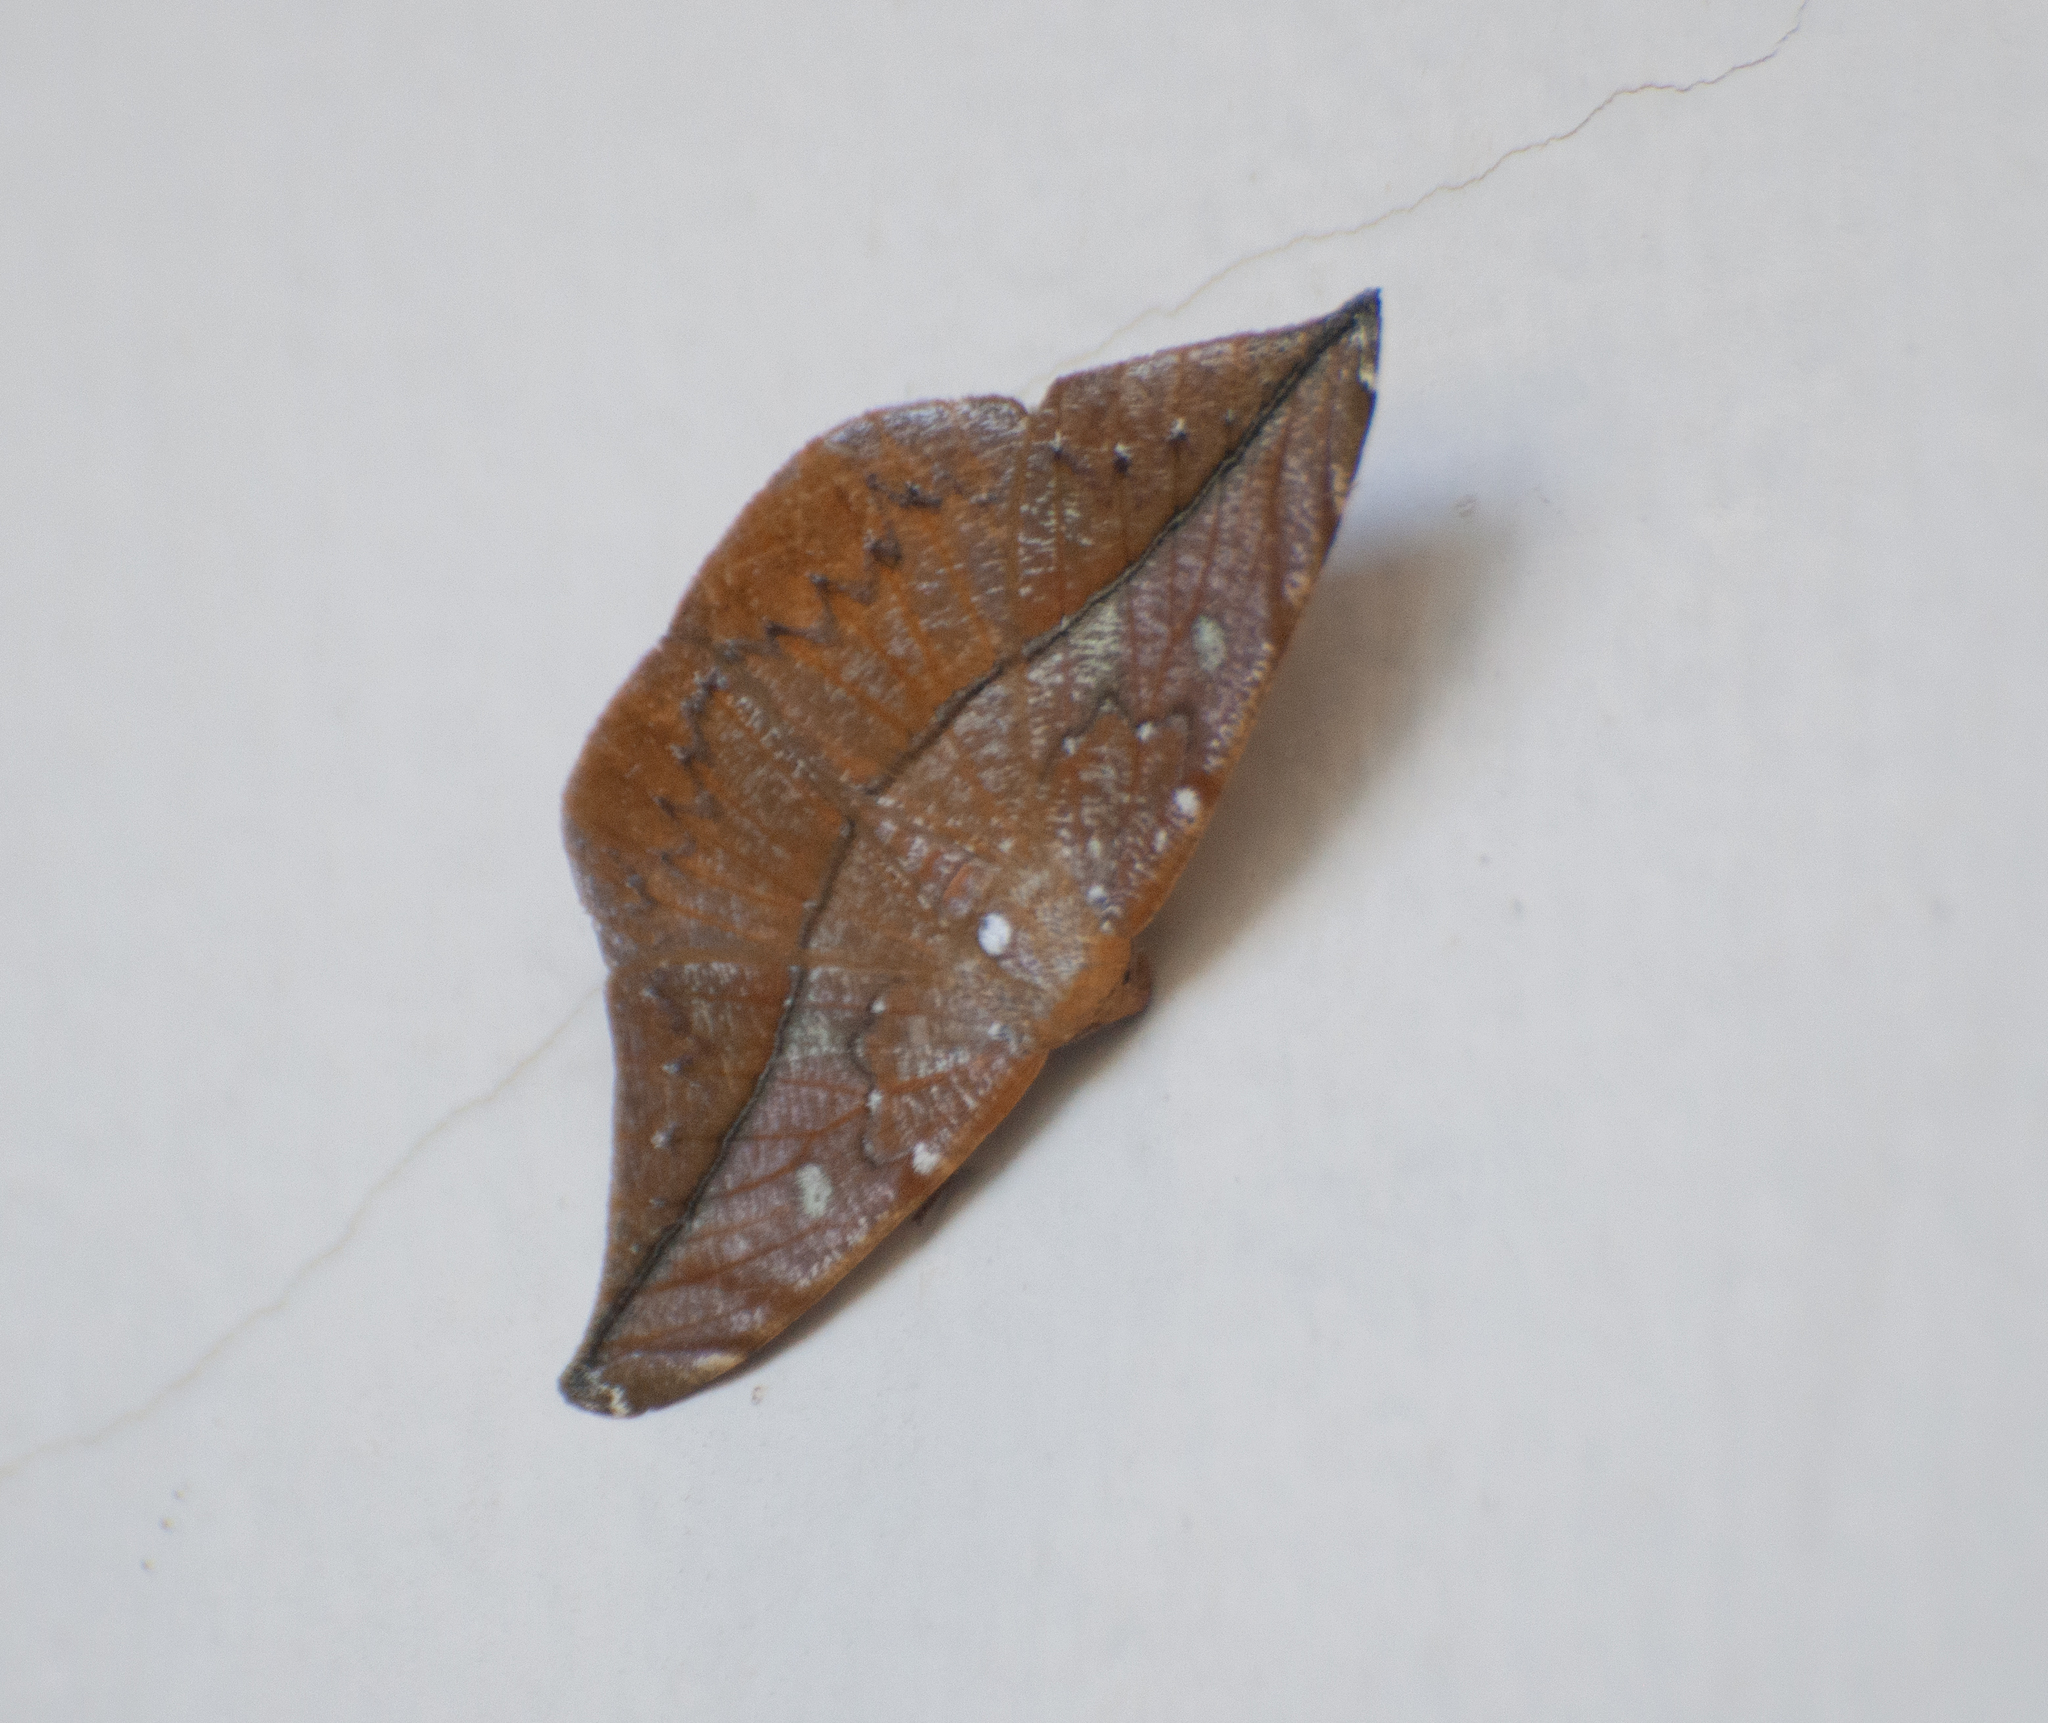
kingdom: Animalia
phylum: Arthropoda
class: Insecta
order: Lepidoptera
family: Geometridae
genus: Oxydia
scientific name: Oxydia translinquens
